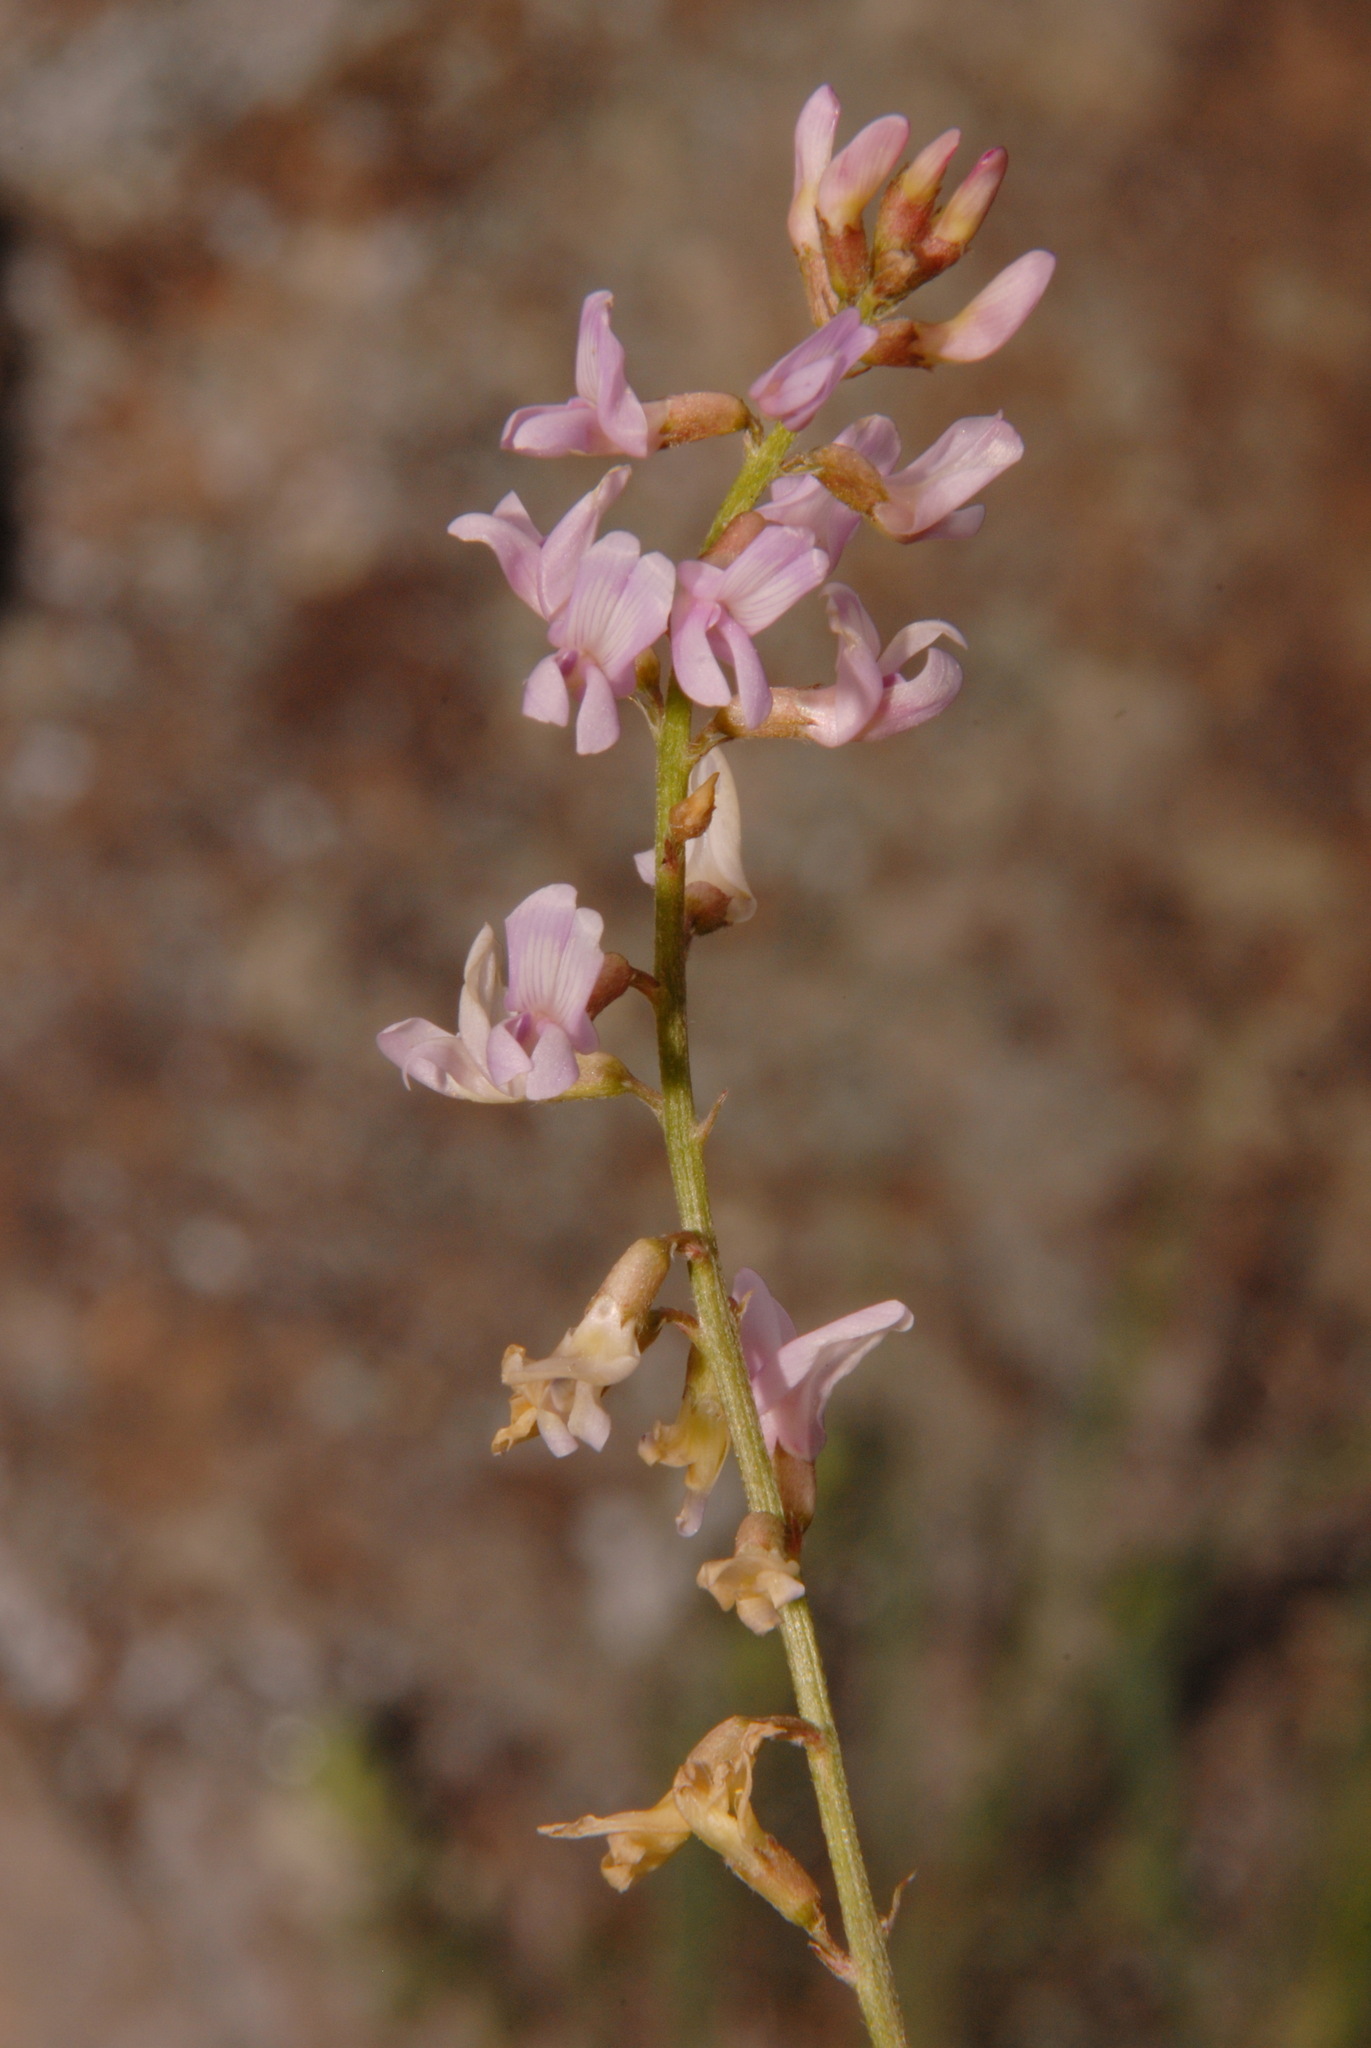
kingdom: Plantae
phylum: Tracheophyta
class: Magnoliopsida
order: Fabales
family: Fabaceae
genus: Astragalus
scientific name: Astragalus flexuosus
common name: Pliant milk-vetch
